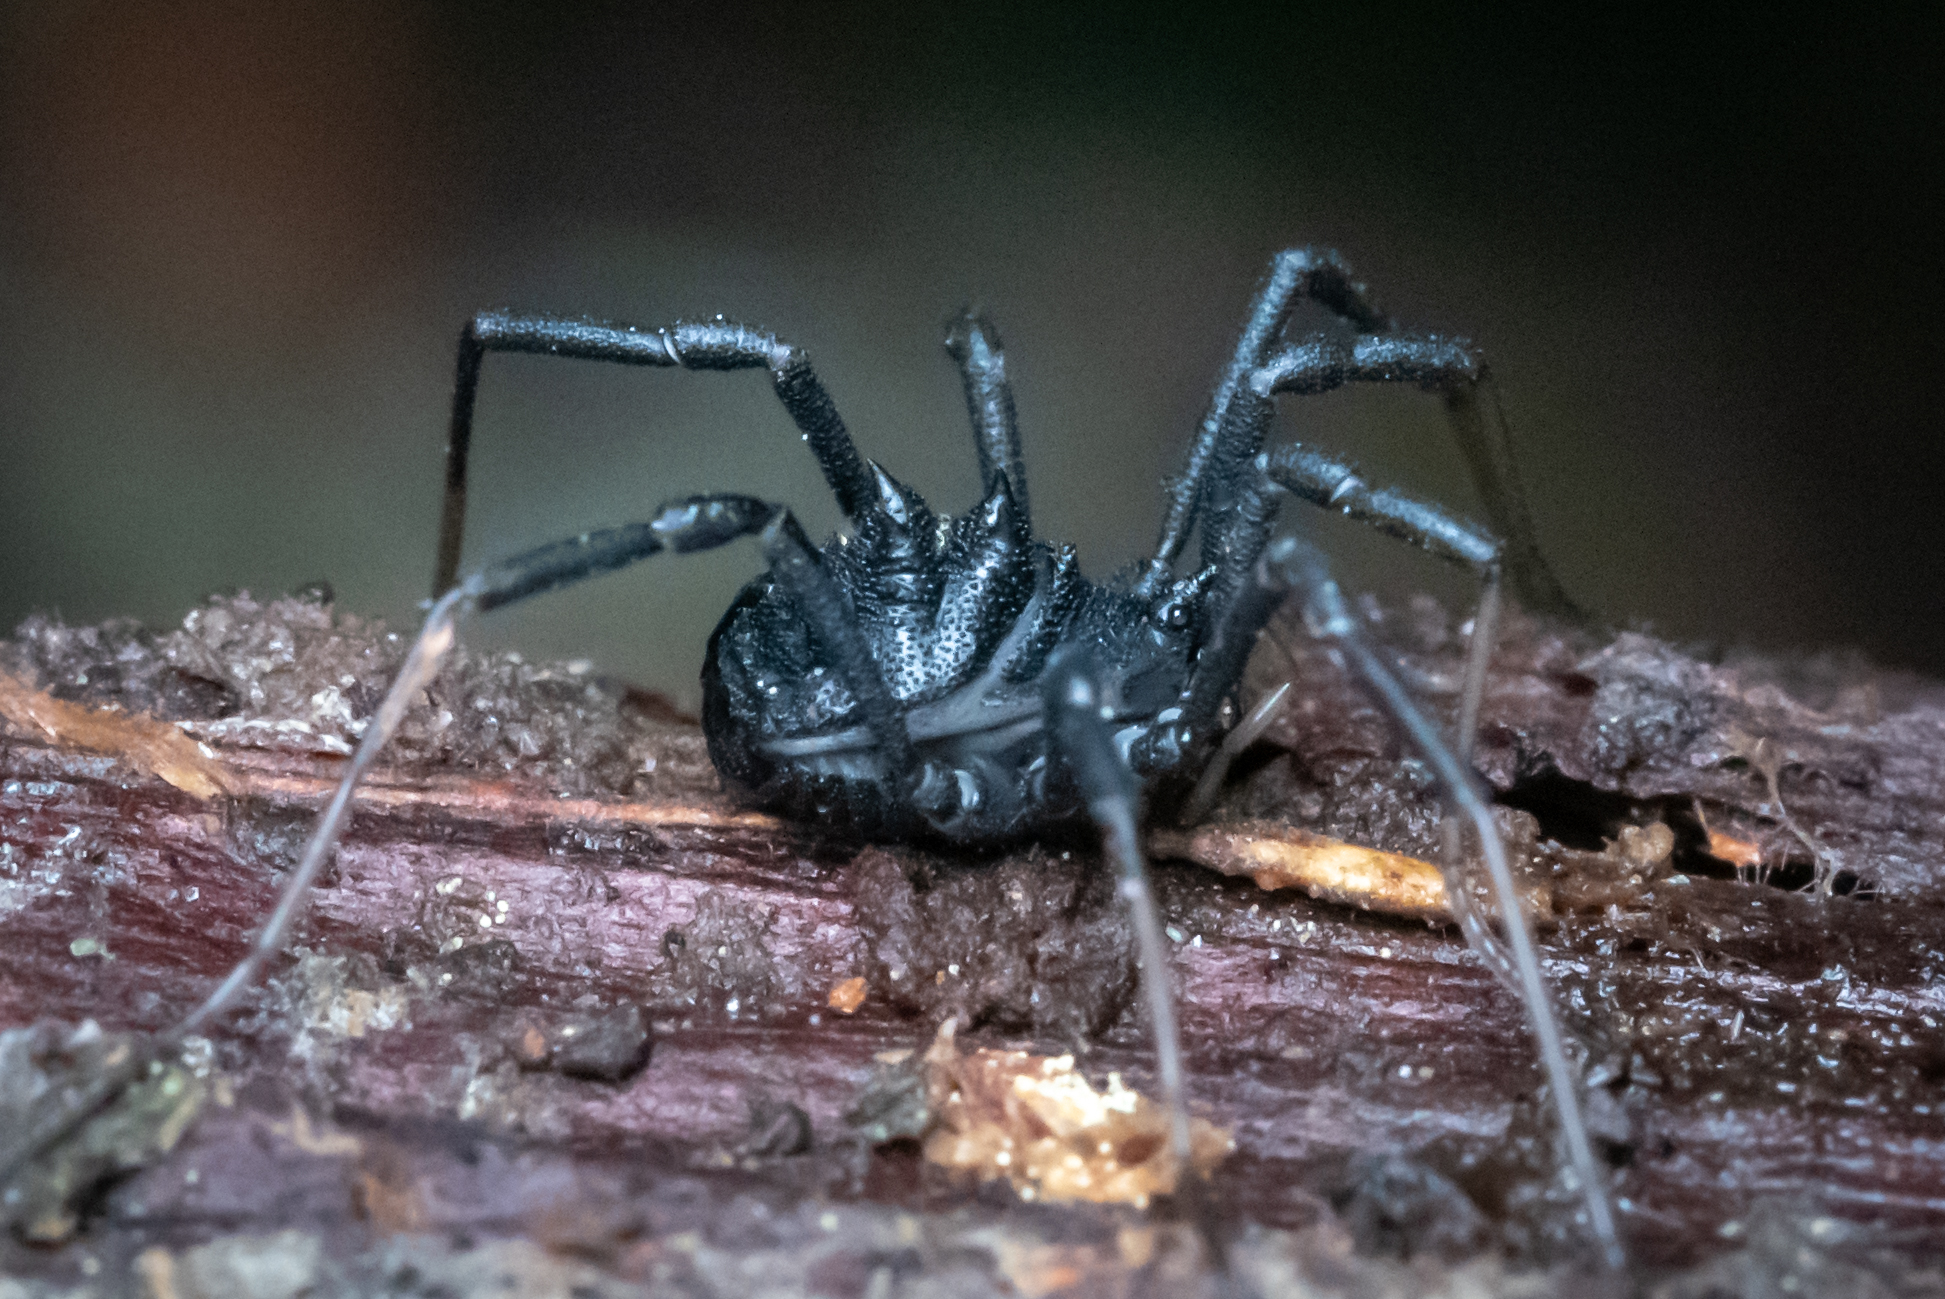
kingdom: Animalia
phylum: Arthropoda
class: Arachnida
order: Opiliones
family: Ischyropsalididae
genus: Acuclavella
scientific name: Acuclavella
